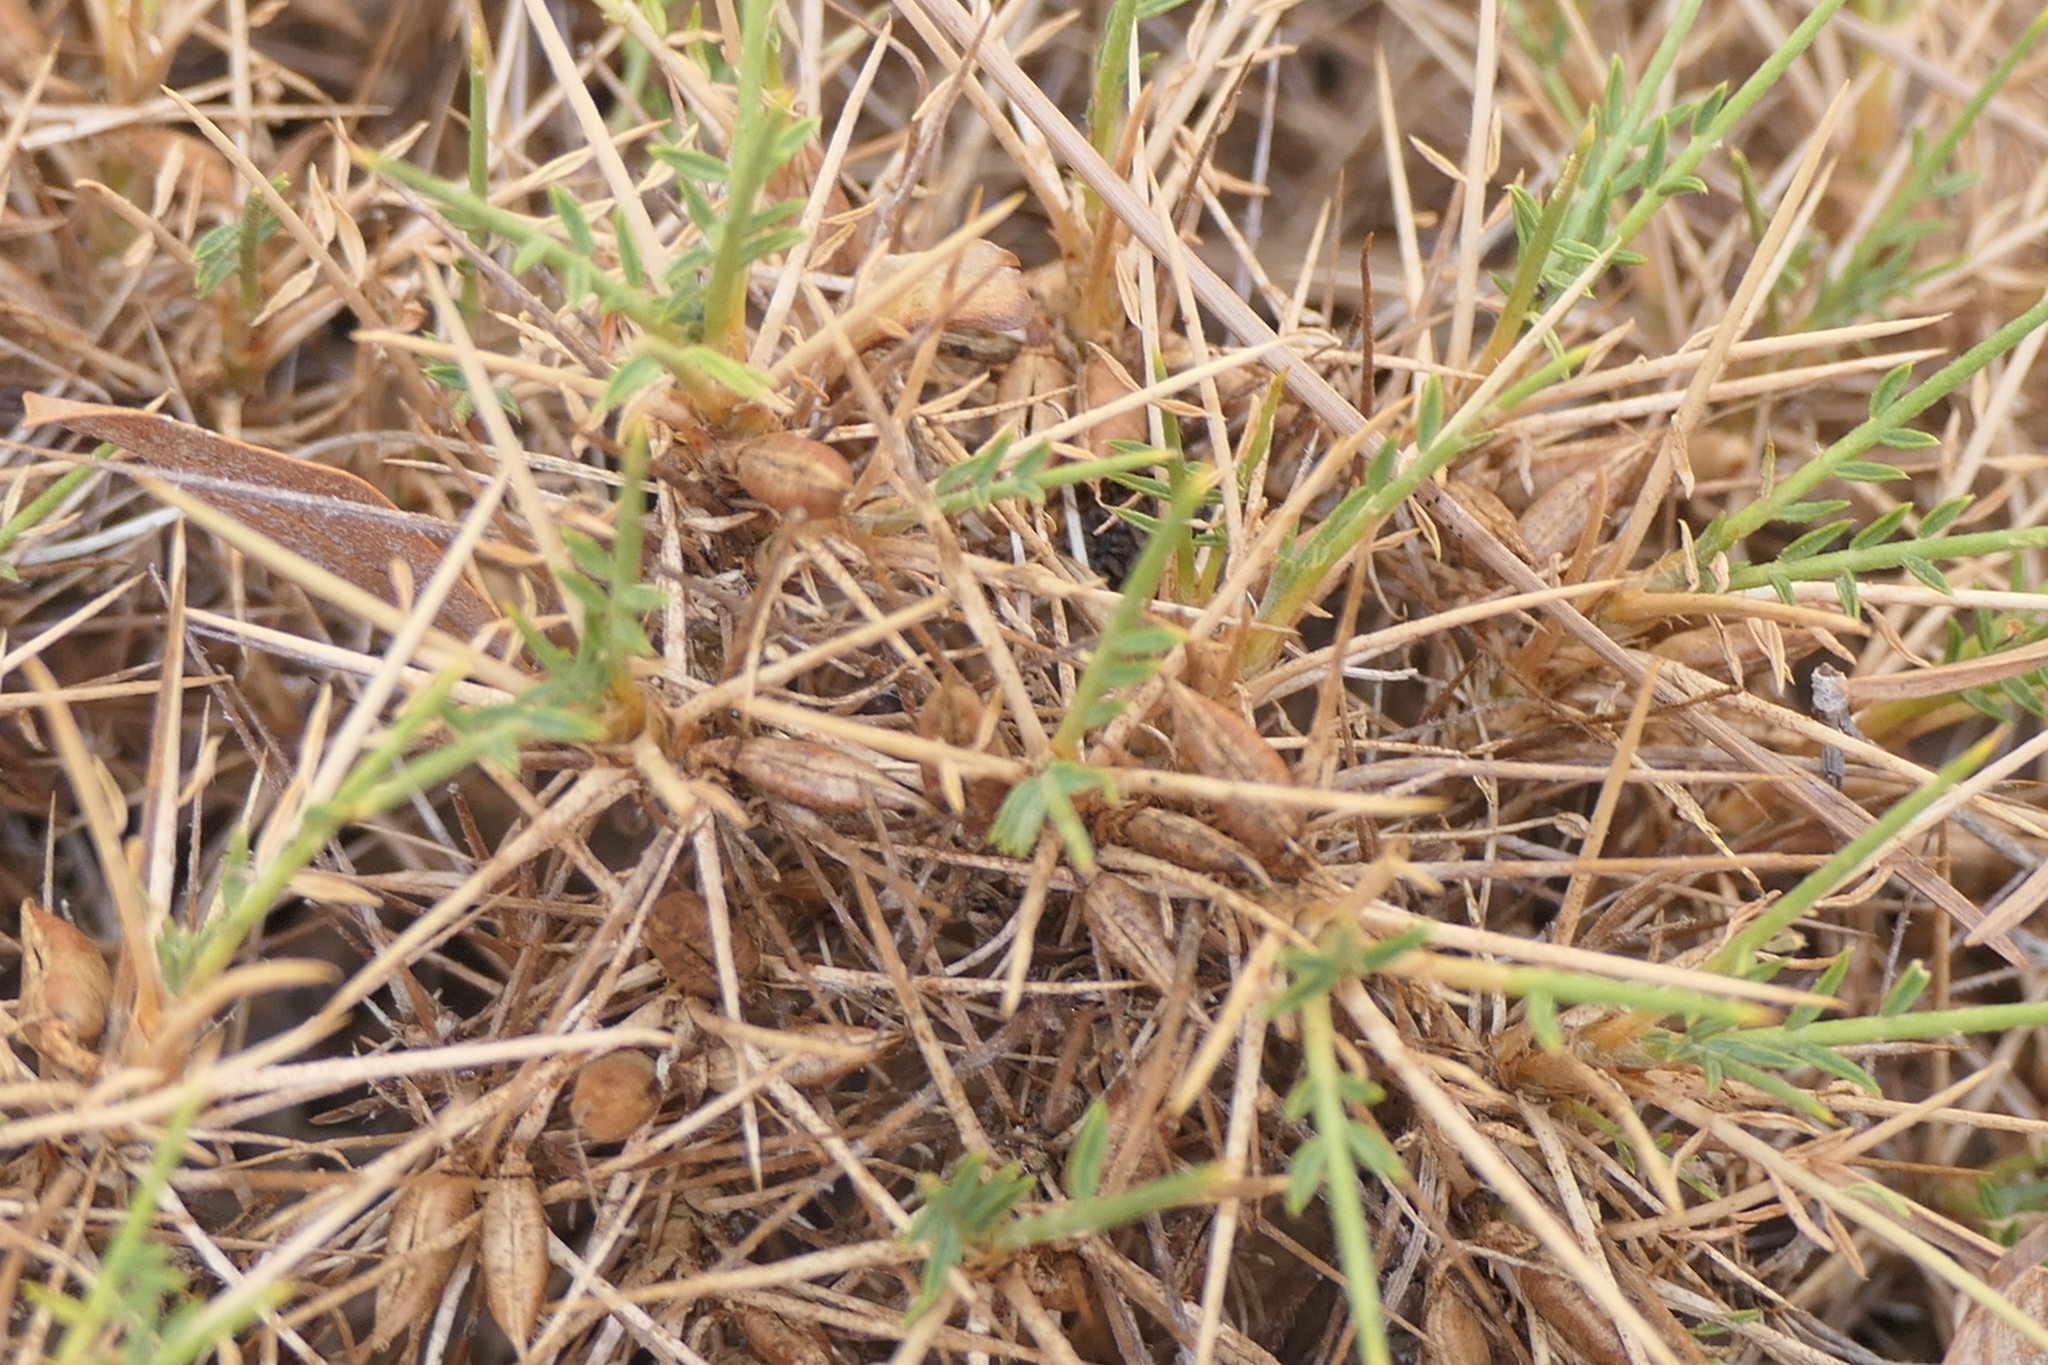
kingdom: Plantae
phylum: Tracheophyta
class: Magnoliopsida
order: Fabales
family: Fabaceae
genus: Astragalus
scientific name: Astragalus balearicus
